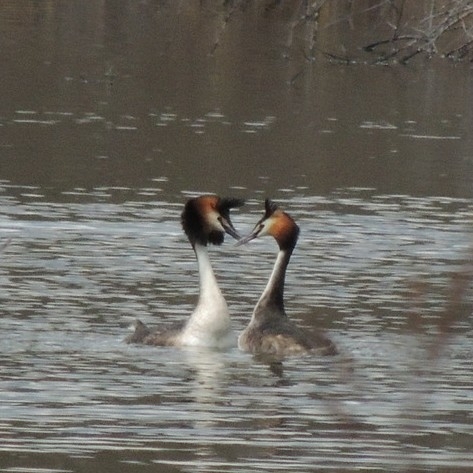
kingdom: Animalia
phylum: Chordata
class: Aves
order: Podicipediformes
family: Podicipedidae
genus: Podiceps
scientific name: Podiceps cristatus
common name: Great crested grebe
